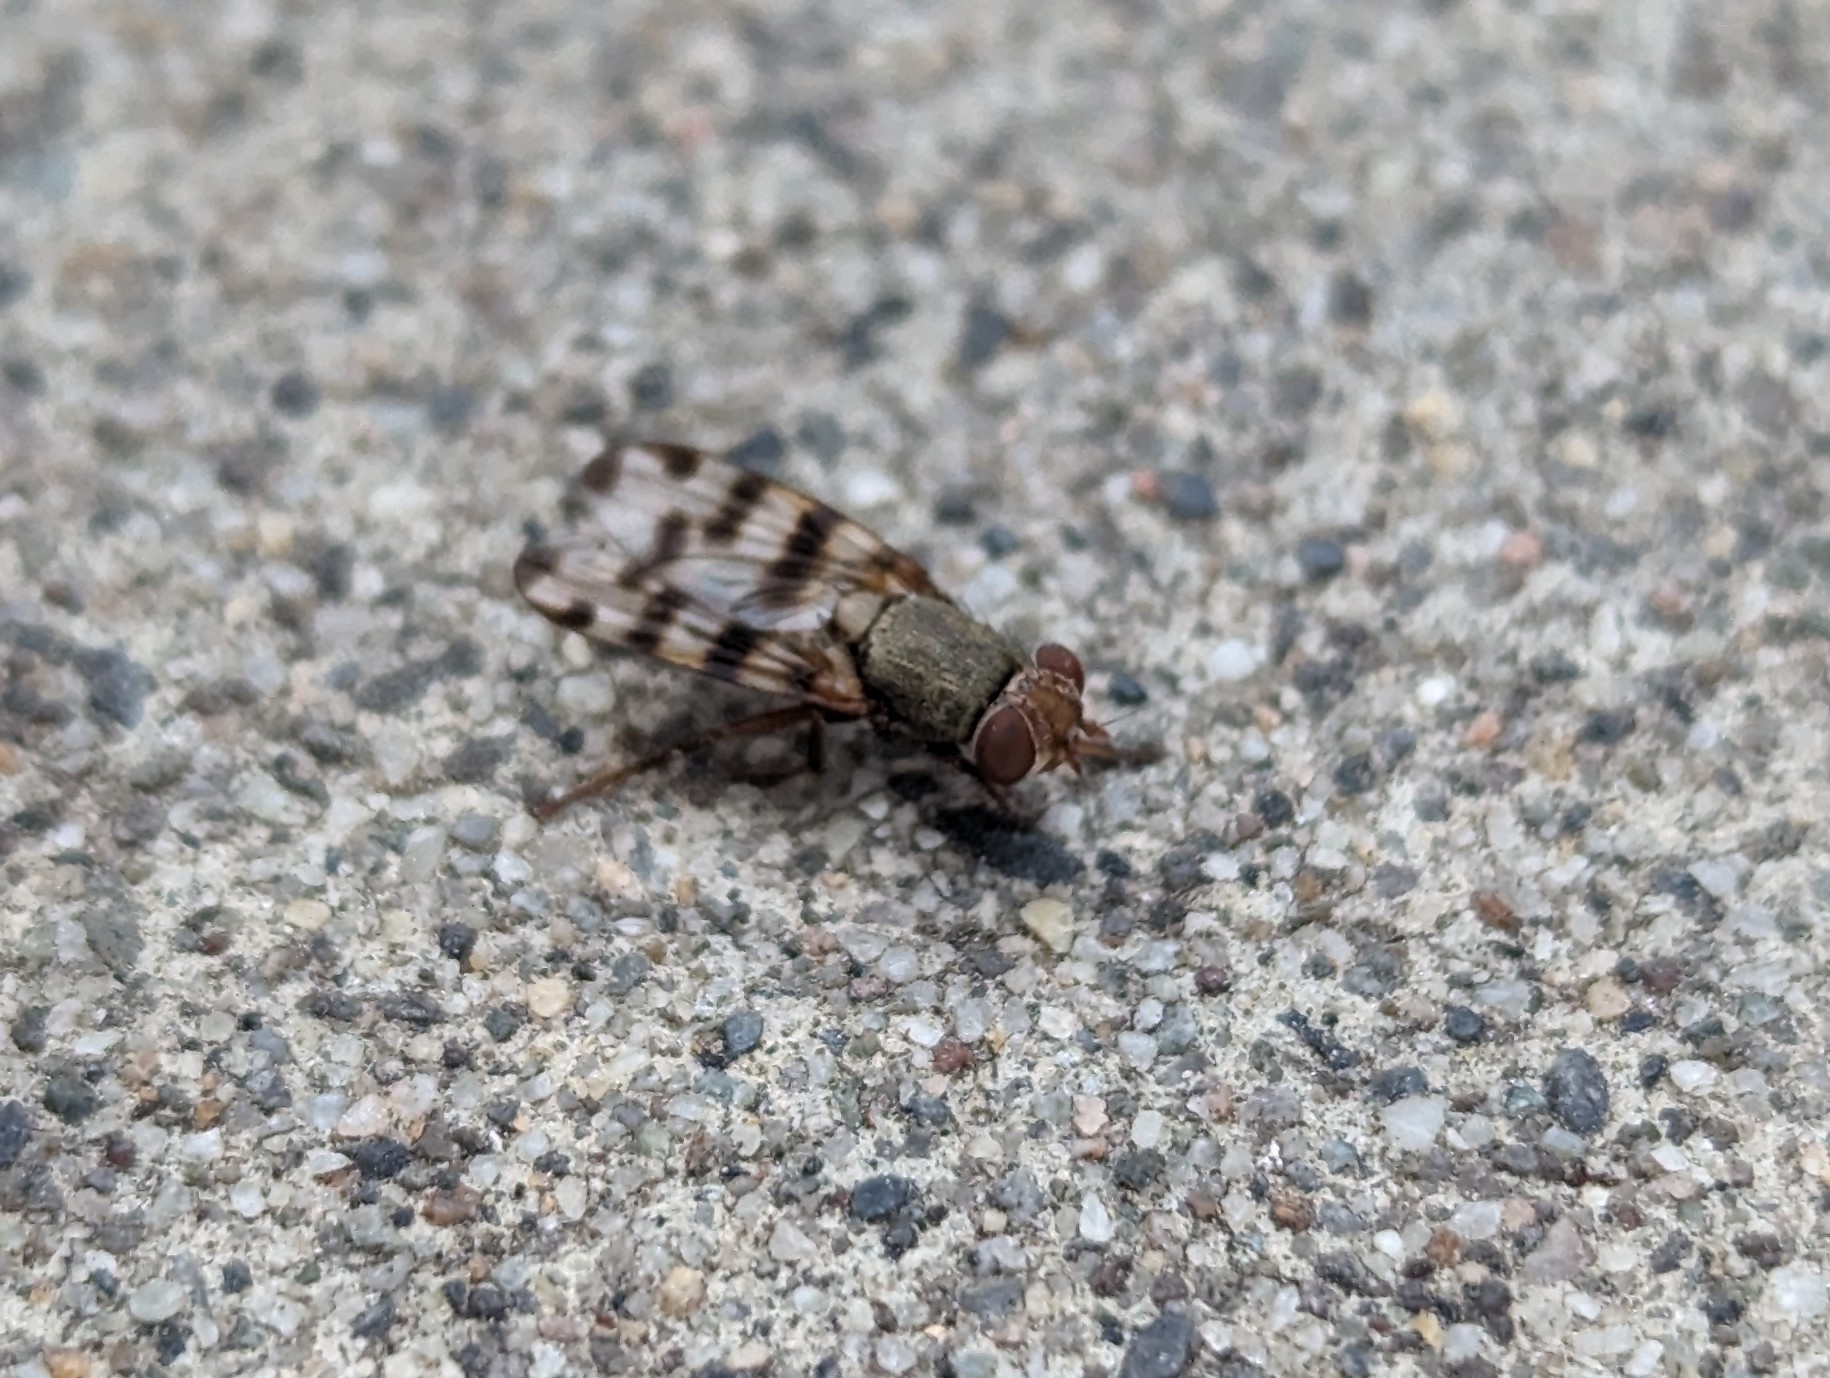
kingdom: Animalia
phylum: Arthropoda
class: Insecta
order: Diptera
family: Ulidiidae
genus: Ceroxys
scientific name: Ceroxys latiusculus
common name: Picture-winged fly
